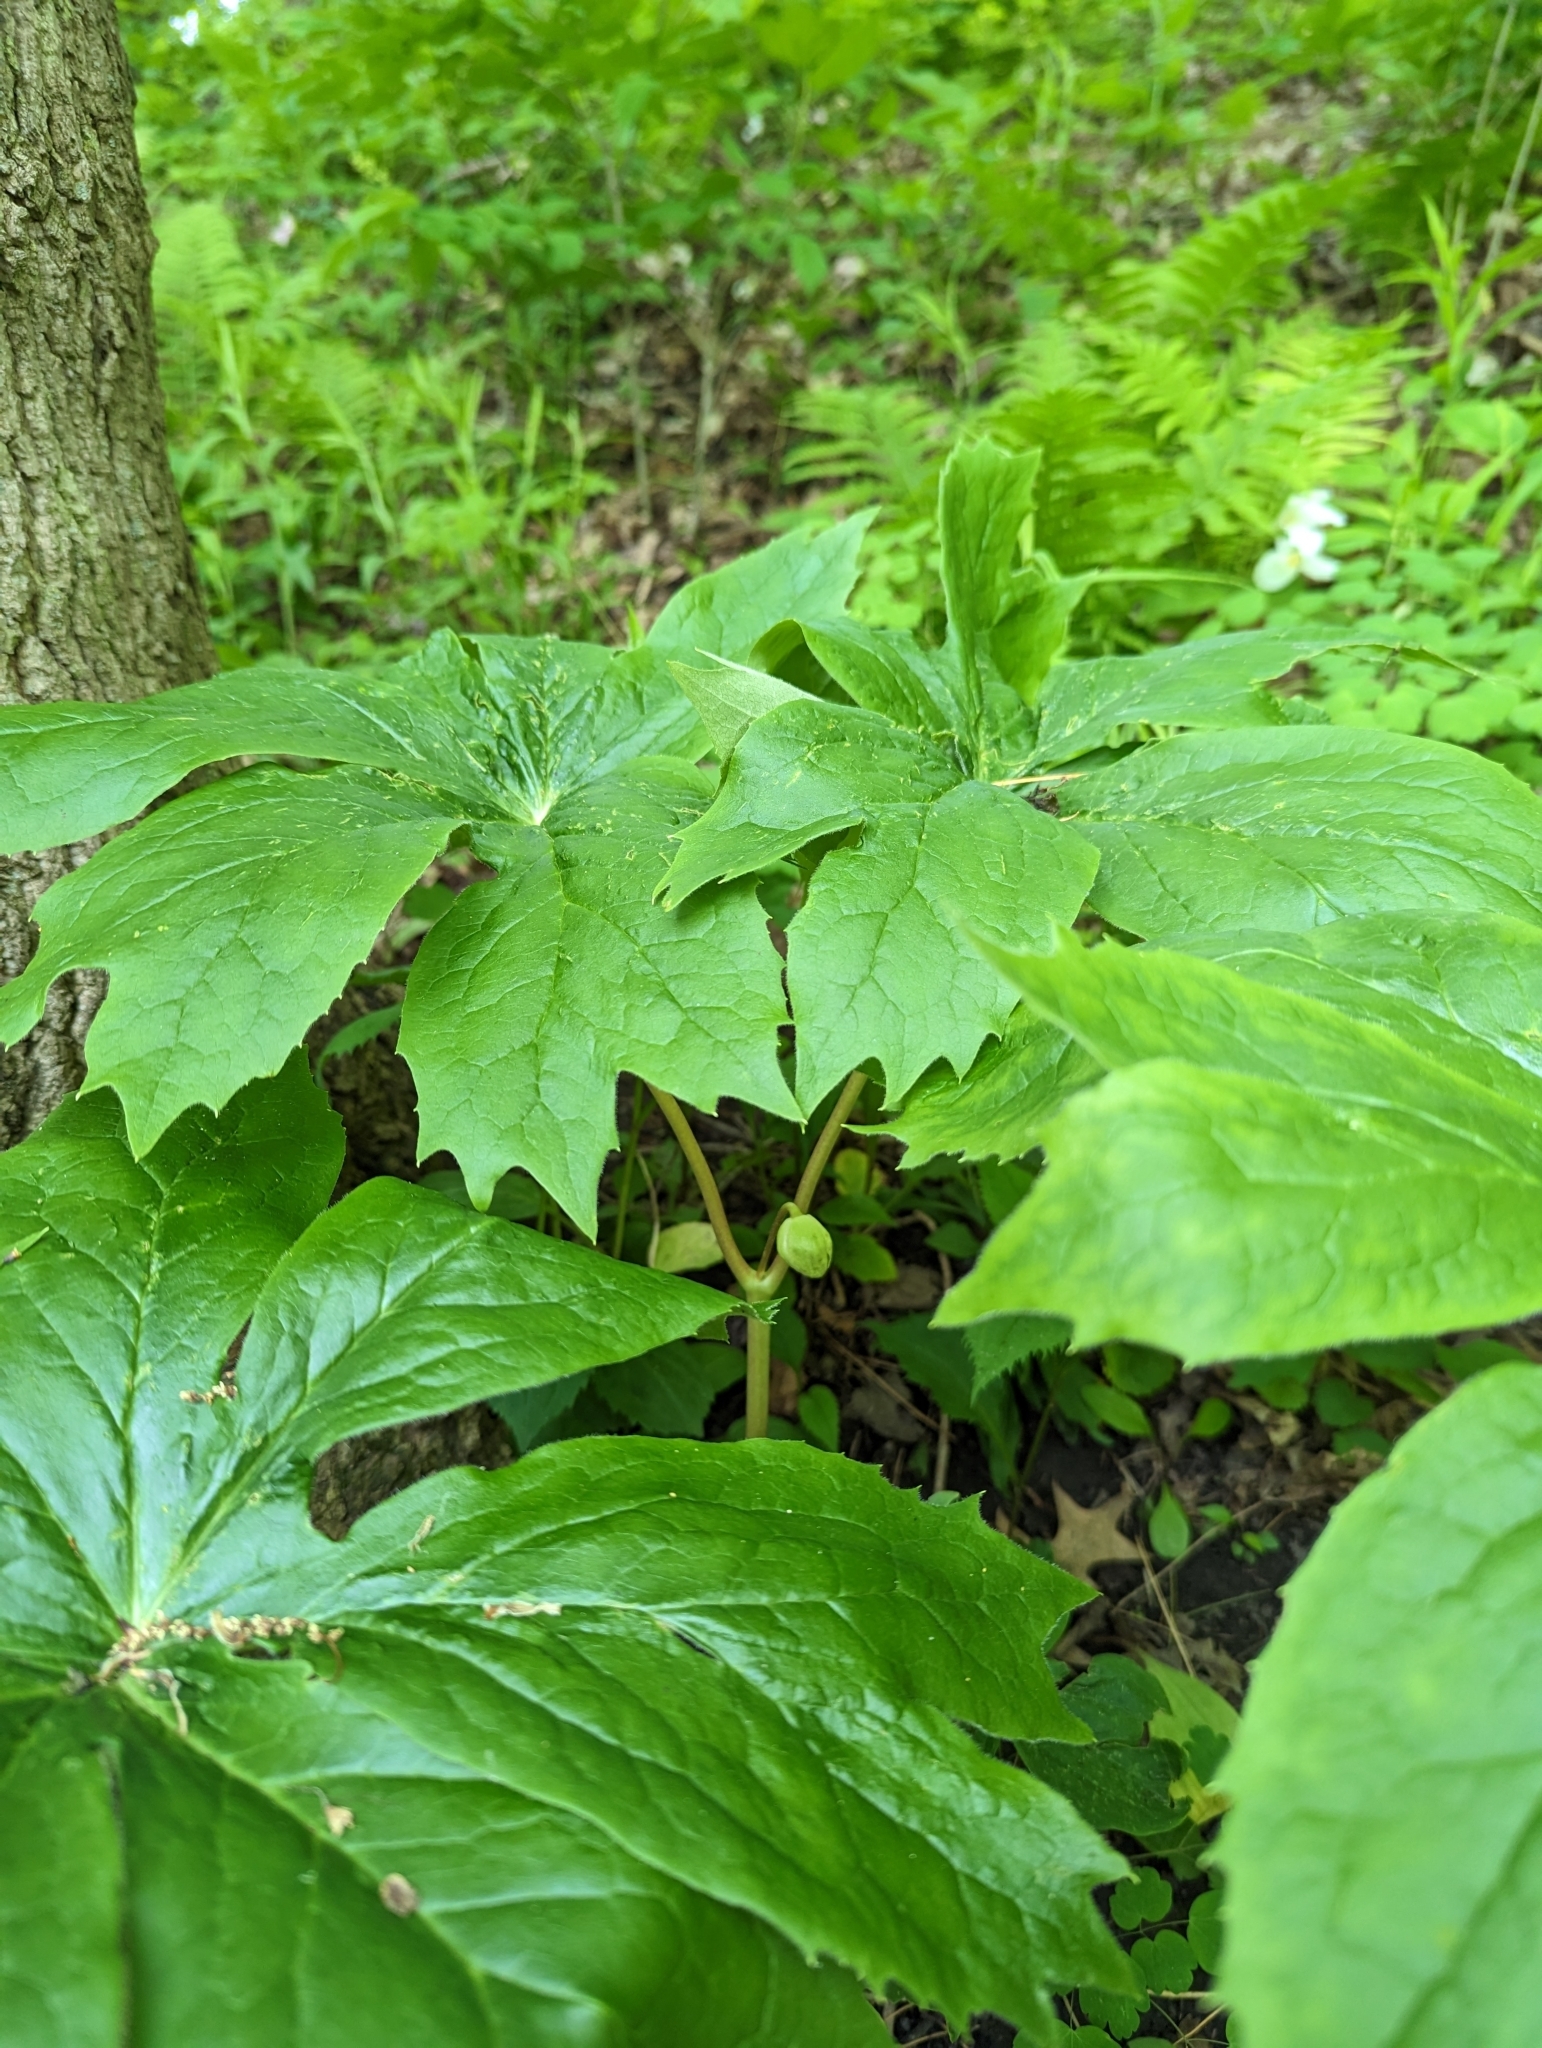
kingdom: Plantae
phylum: Tracheophyta
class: Magnoliopsida
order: Ranunculales
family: Berberidaceae
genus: Podophyllum
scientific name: Podophyllum peltatum
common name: Wild mandrake
